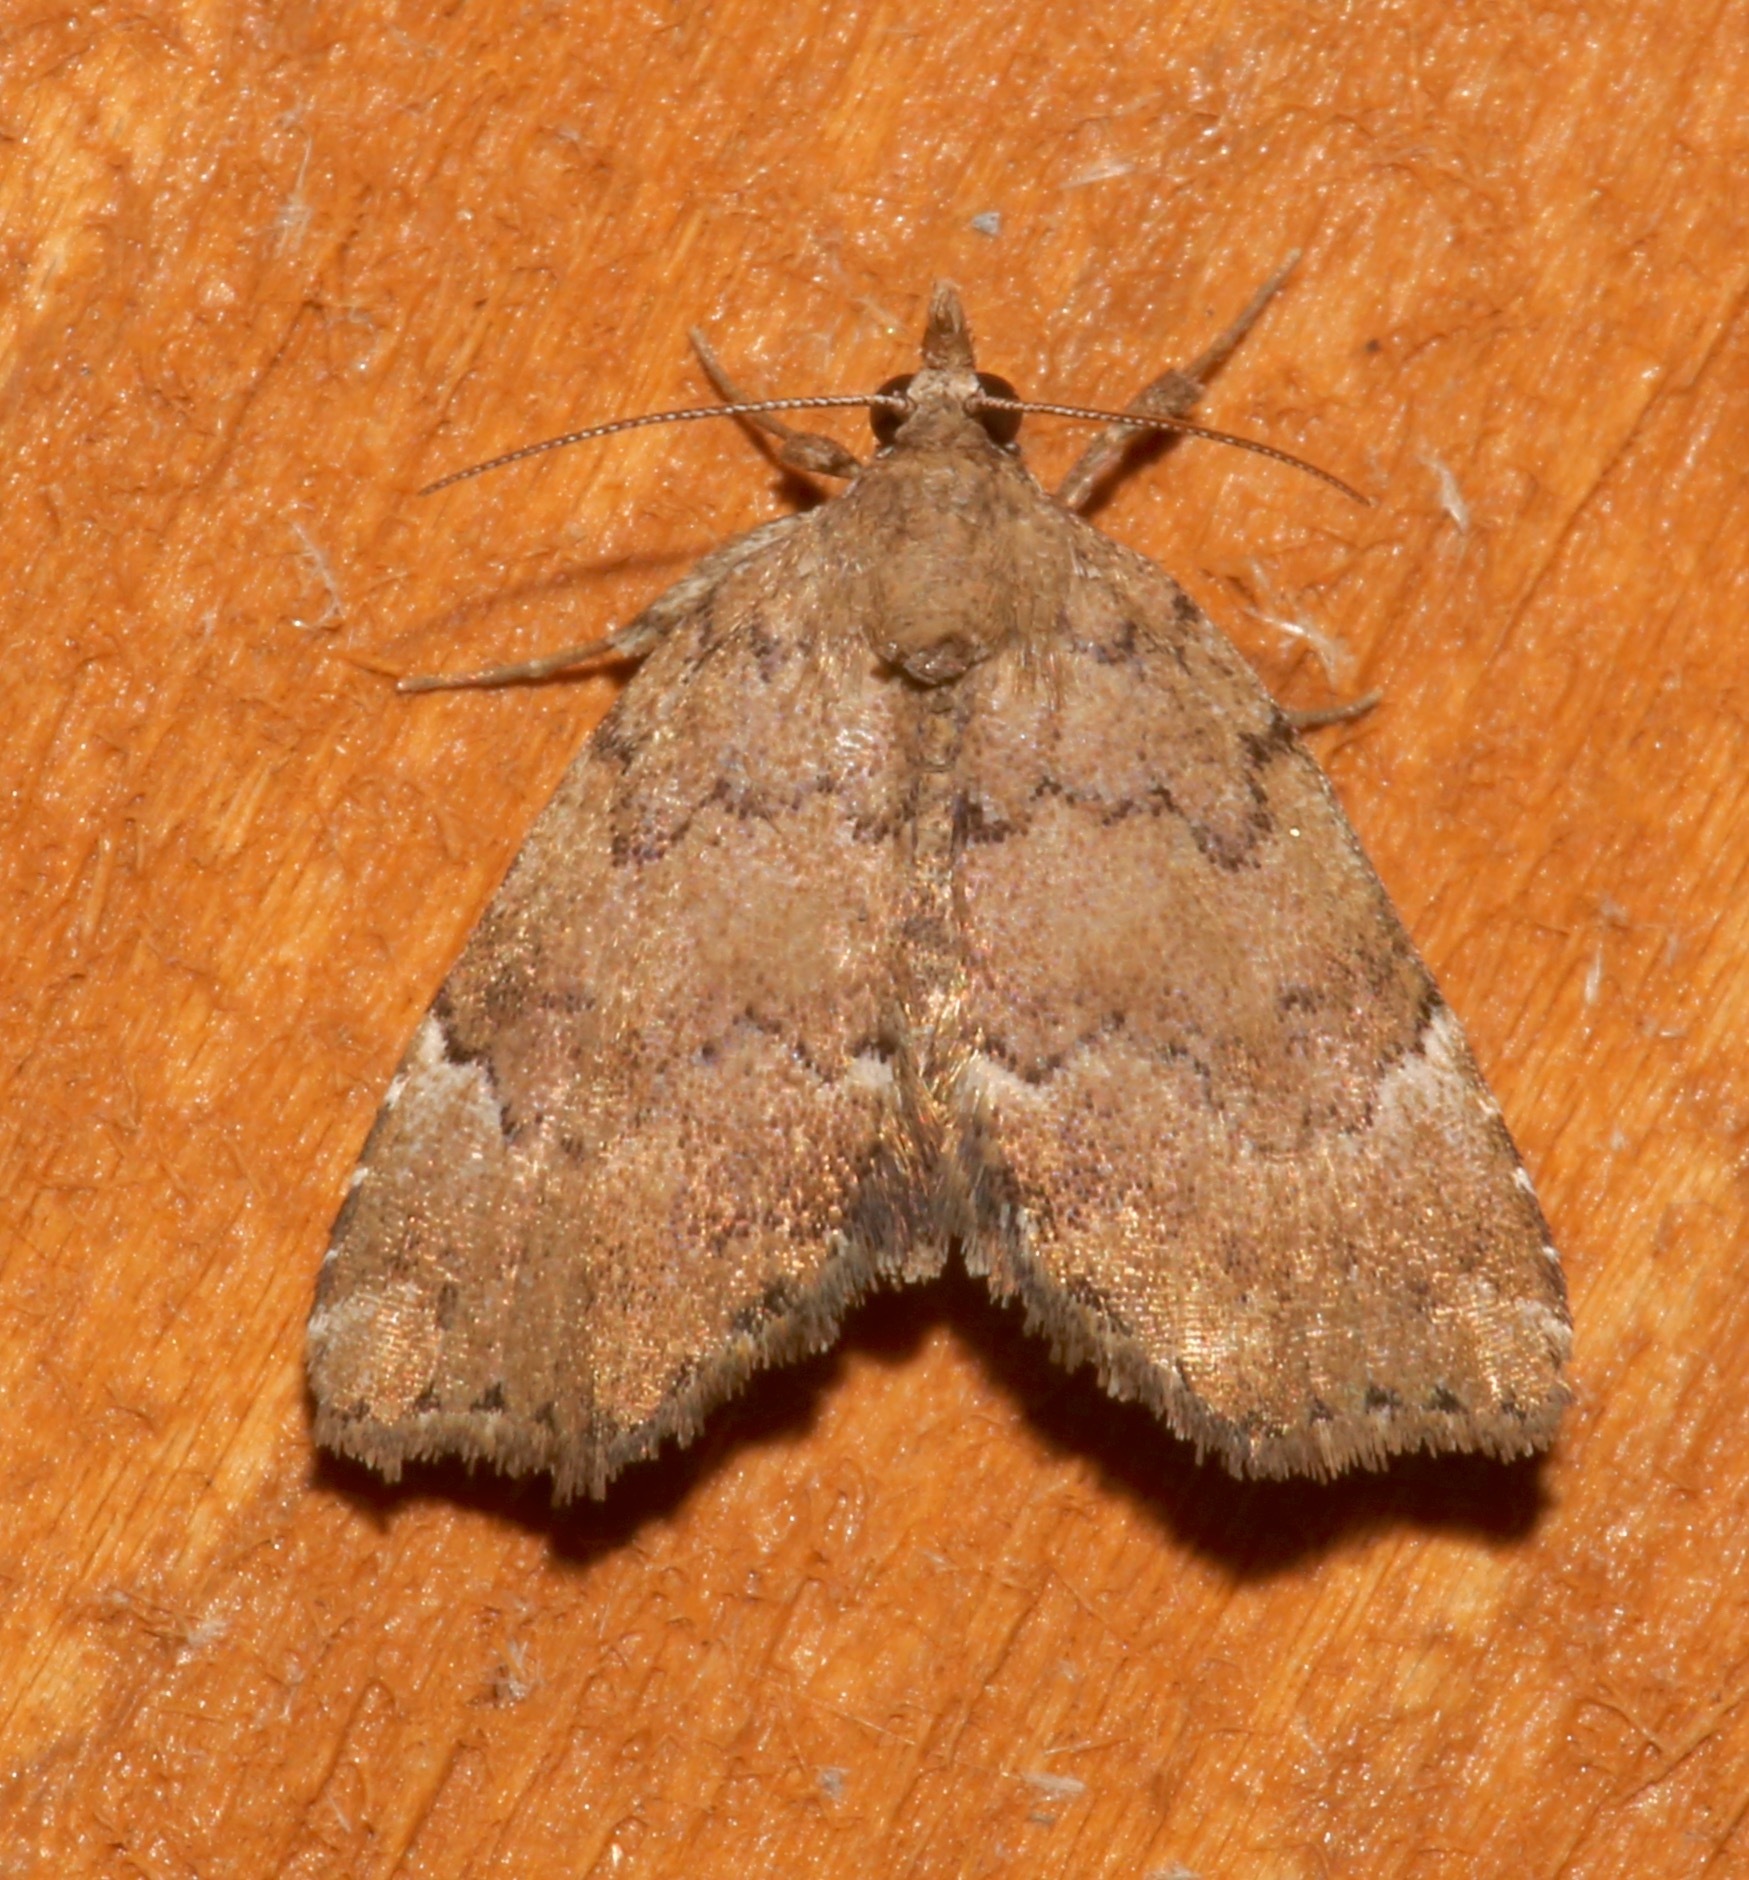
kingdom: Animalia
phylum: Arthropoda
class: Insecta
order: Lepidoptera
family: Erebidae
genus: Cutina
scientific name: Cutina aluticolor
